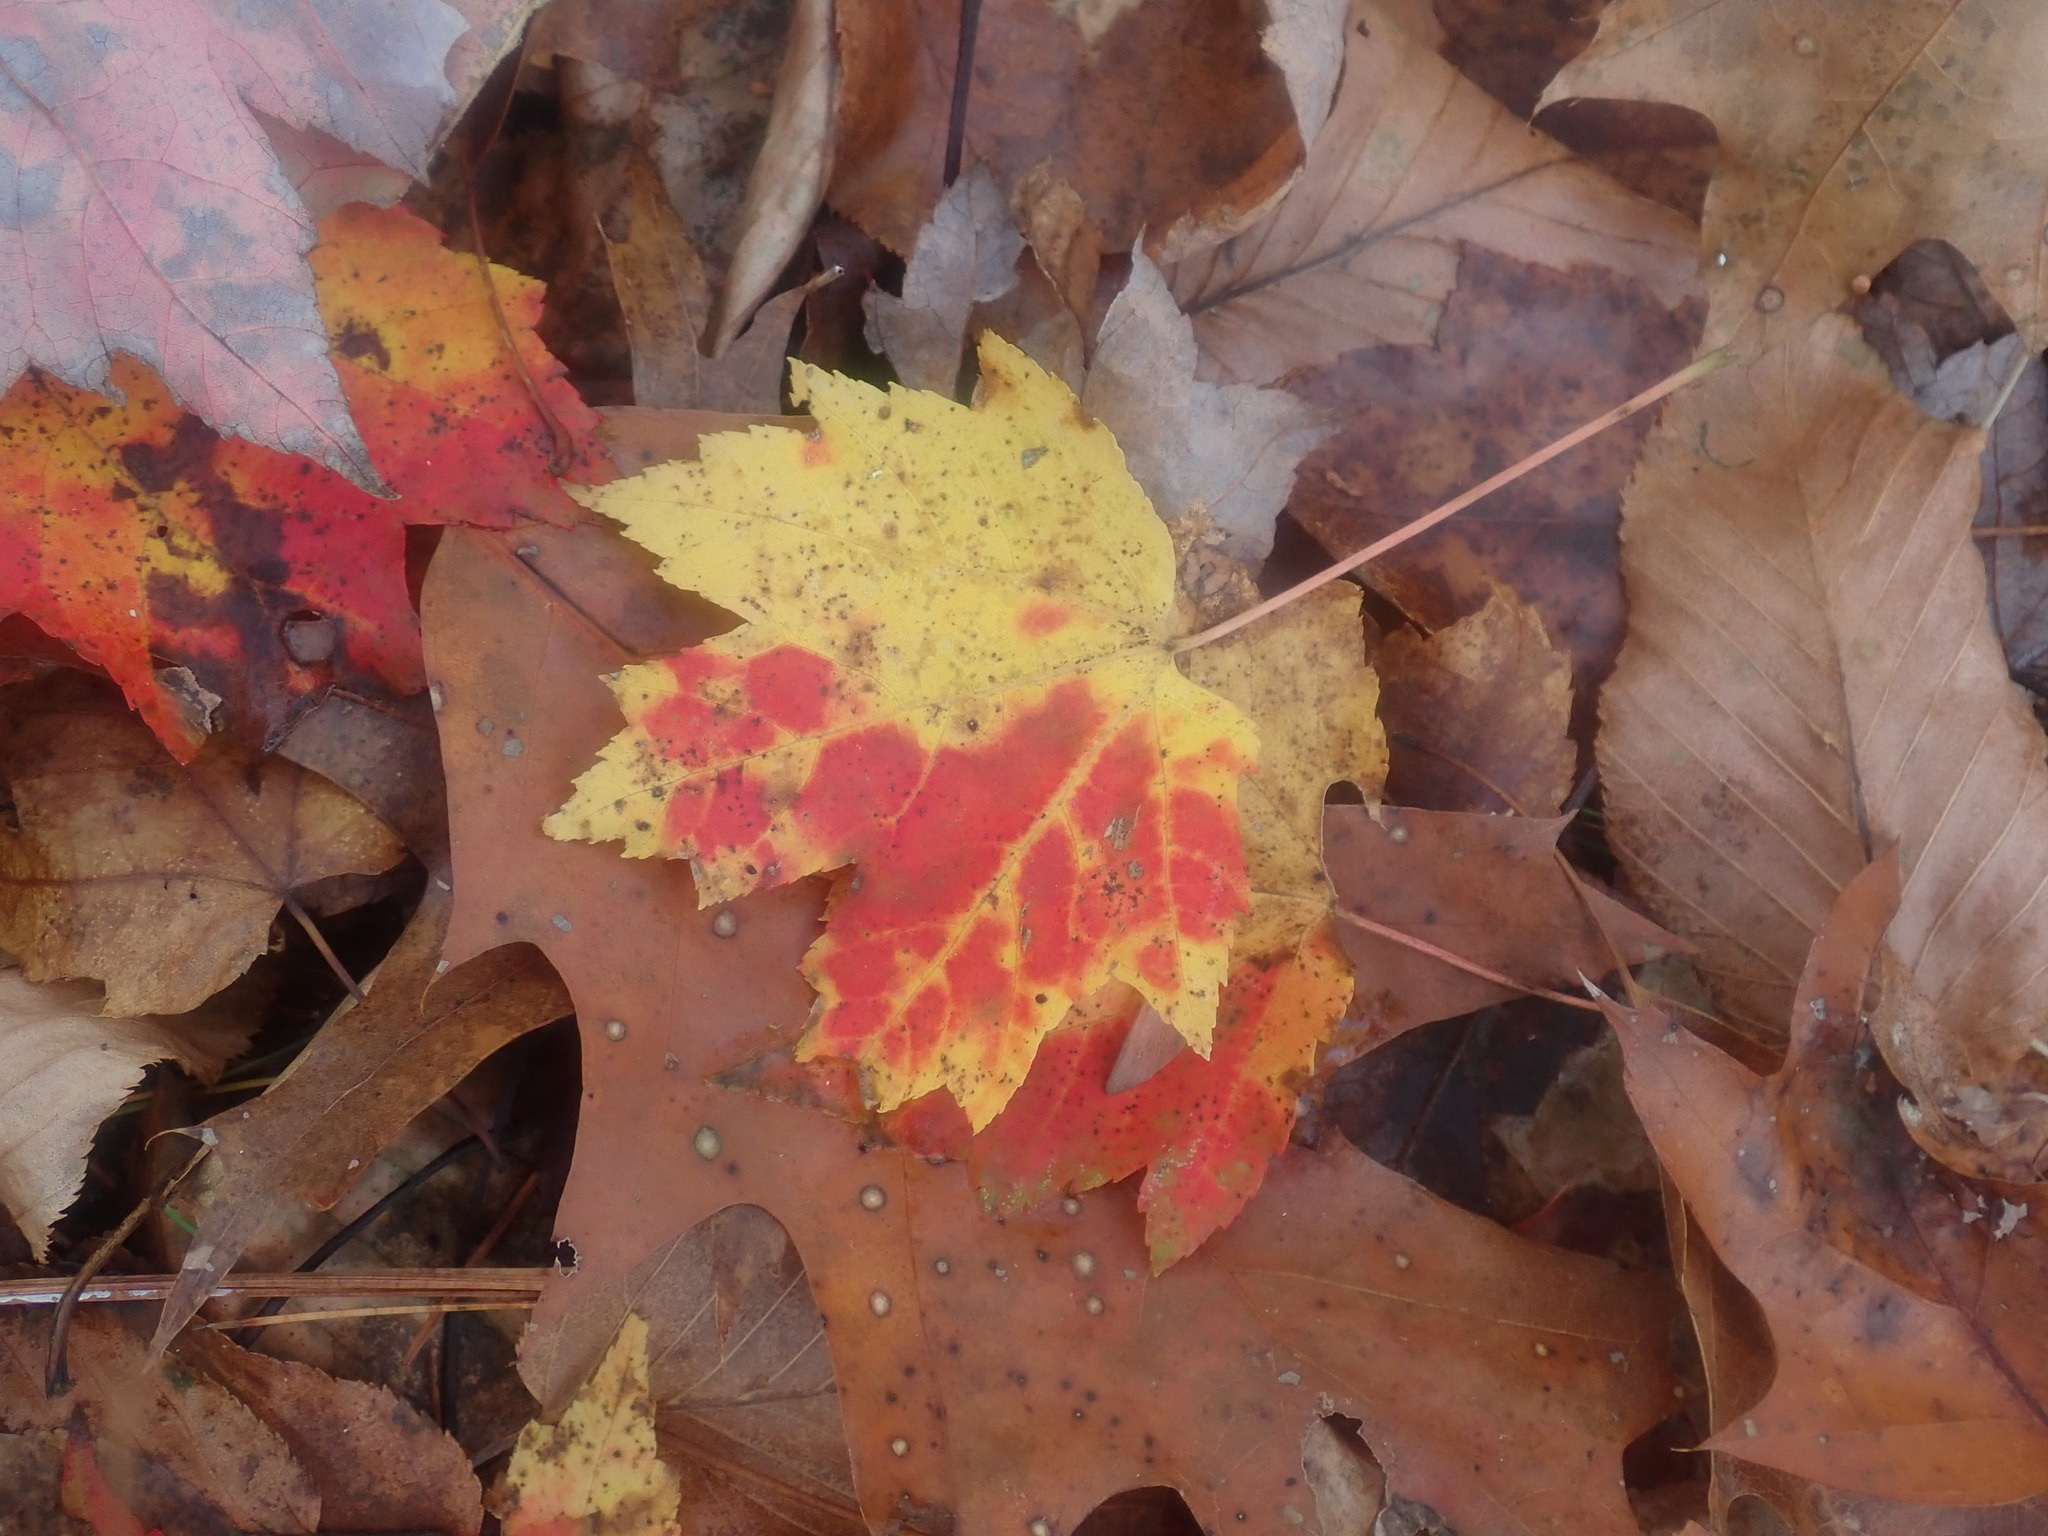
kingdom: Plantae
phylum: Tracheophyta
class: Magnoliopsida
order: Sapindales
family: Sapindaceae
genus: Acer
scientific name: Acer rubrum
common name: Red maple
